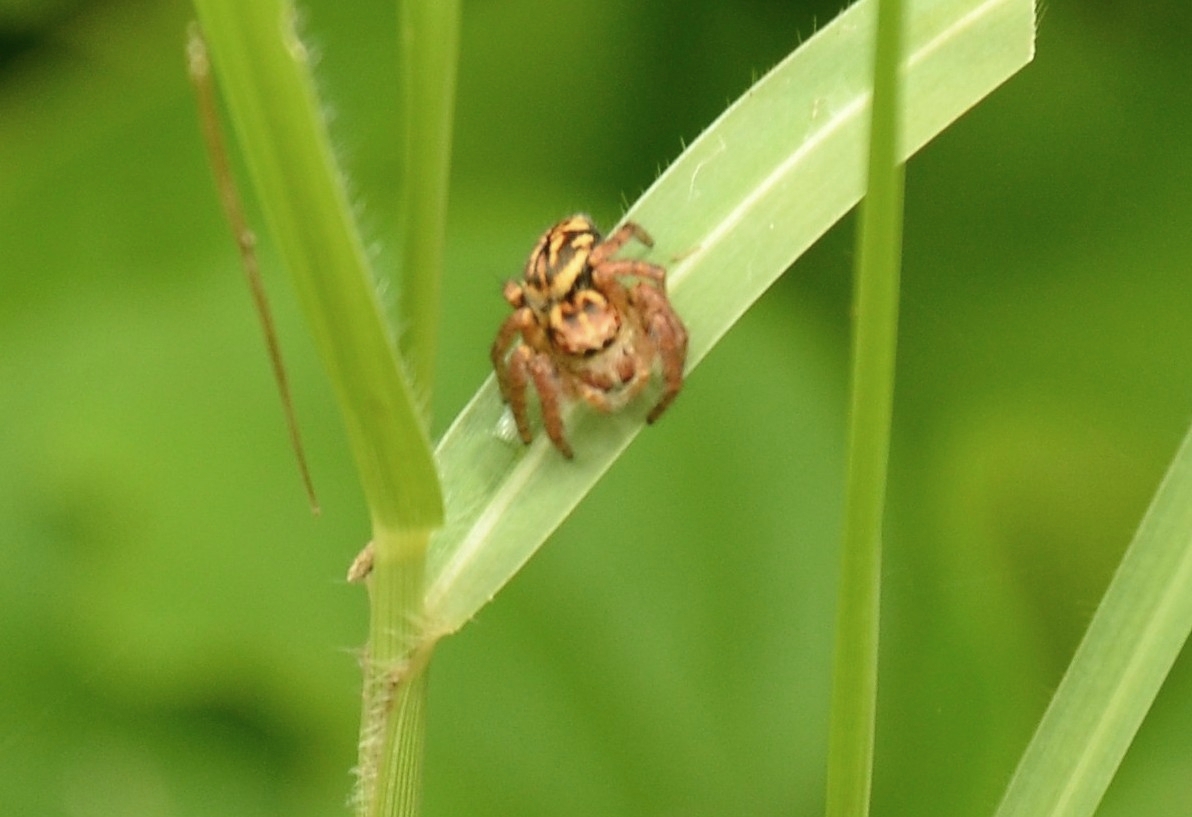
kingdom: Animalia
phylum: Arthropoda
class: Arachnida
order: Araneae
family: Salticidae
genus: Carrhotus
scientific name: Carrhotus viduus
